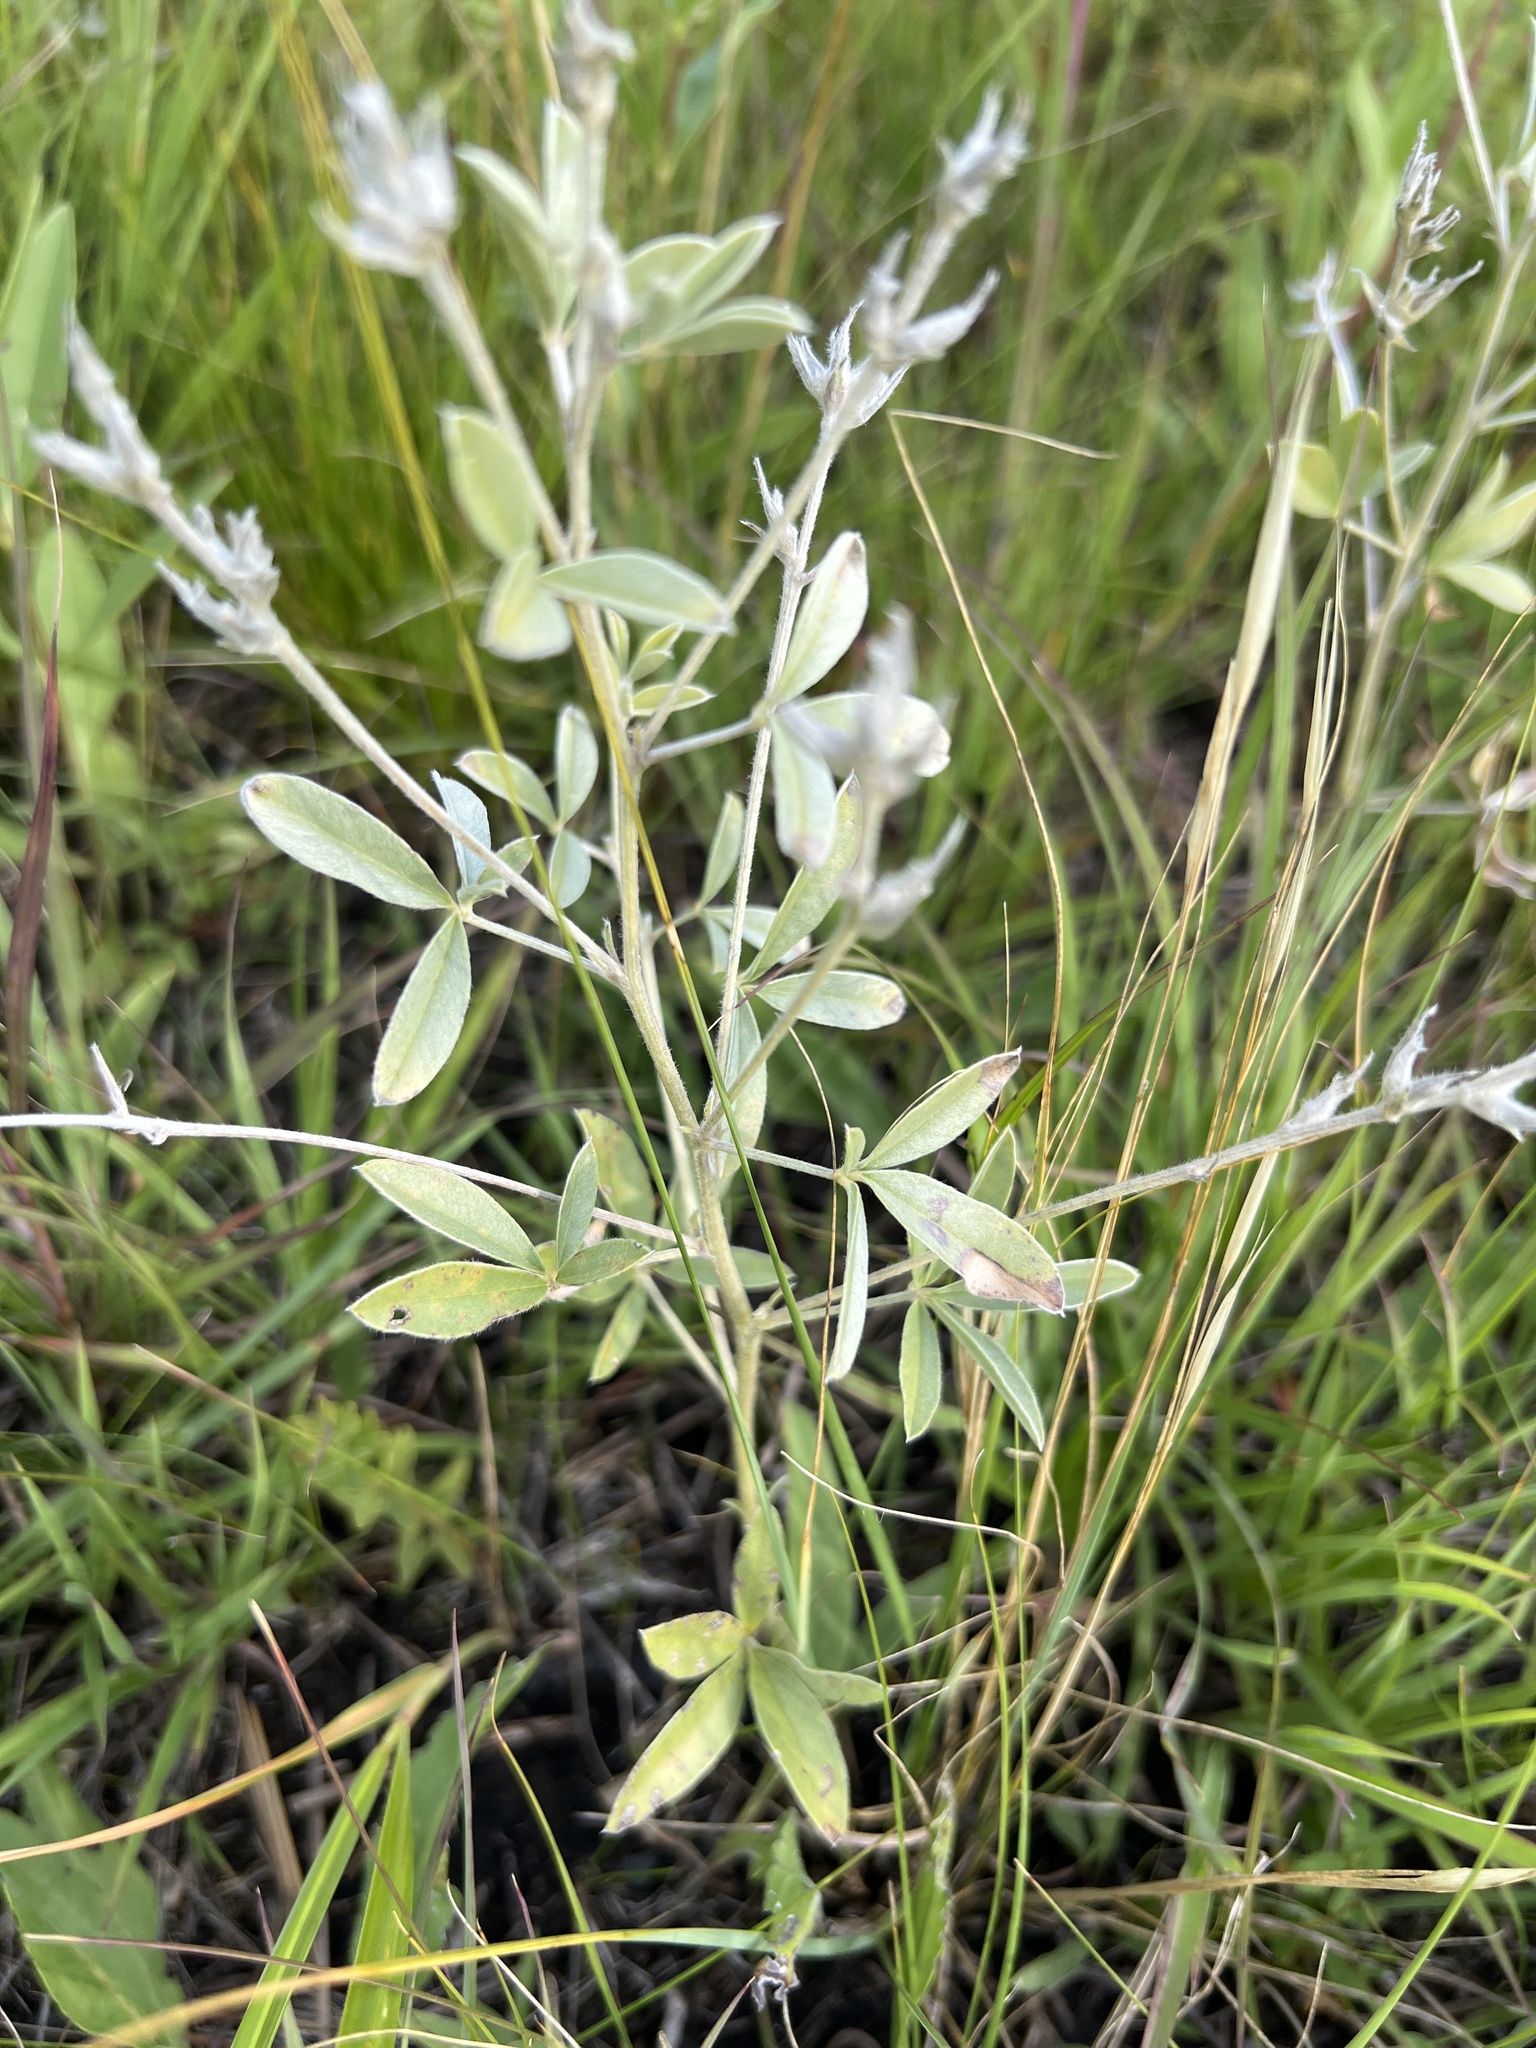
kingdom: Plantae
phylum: Tracheophyta
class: Magnoliopsida
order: Fabales
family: Fabaceae
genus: Pediomelum
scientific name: Pediomelum argophyllum
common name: Silver-leaved indian breadroot
